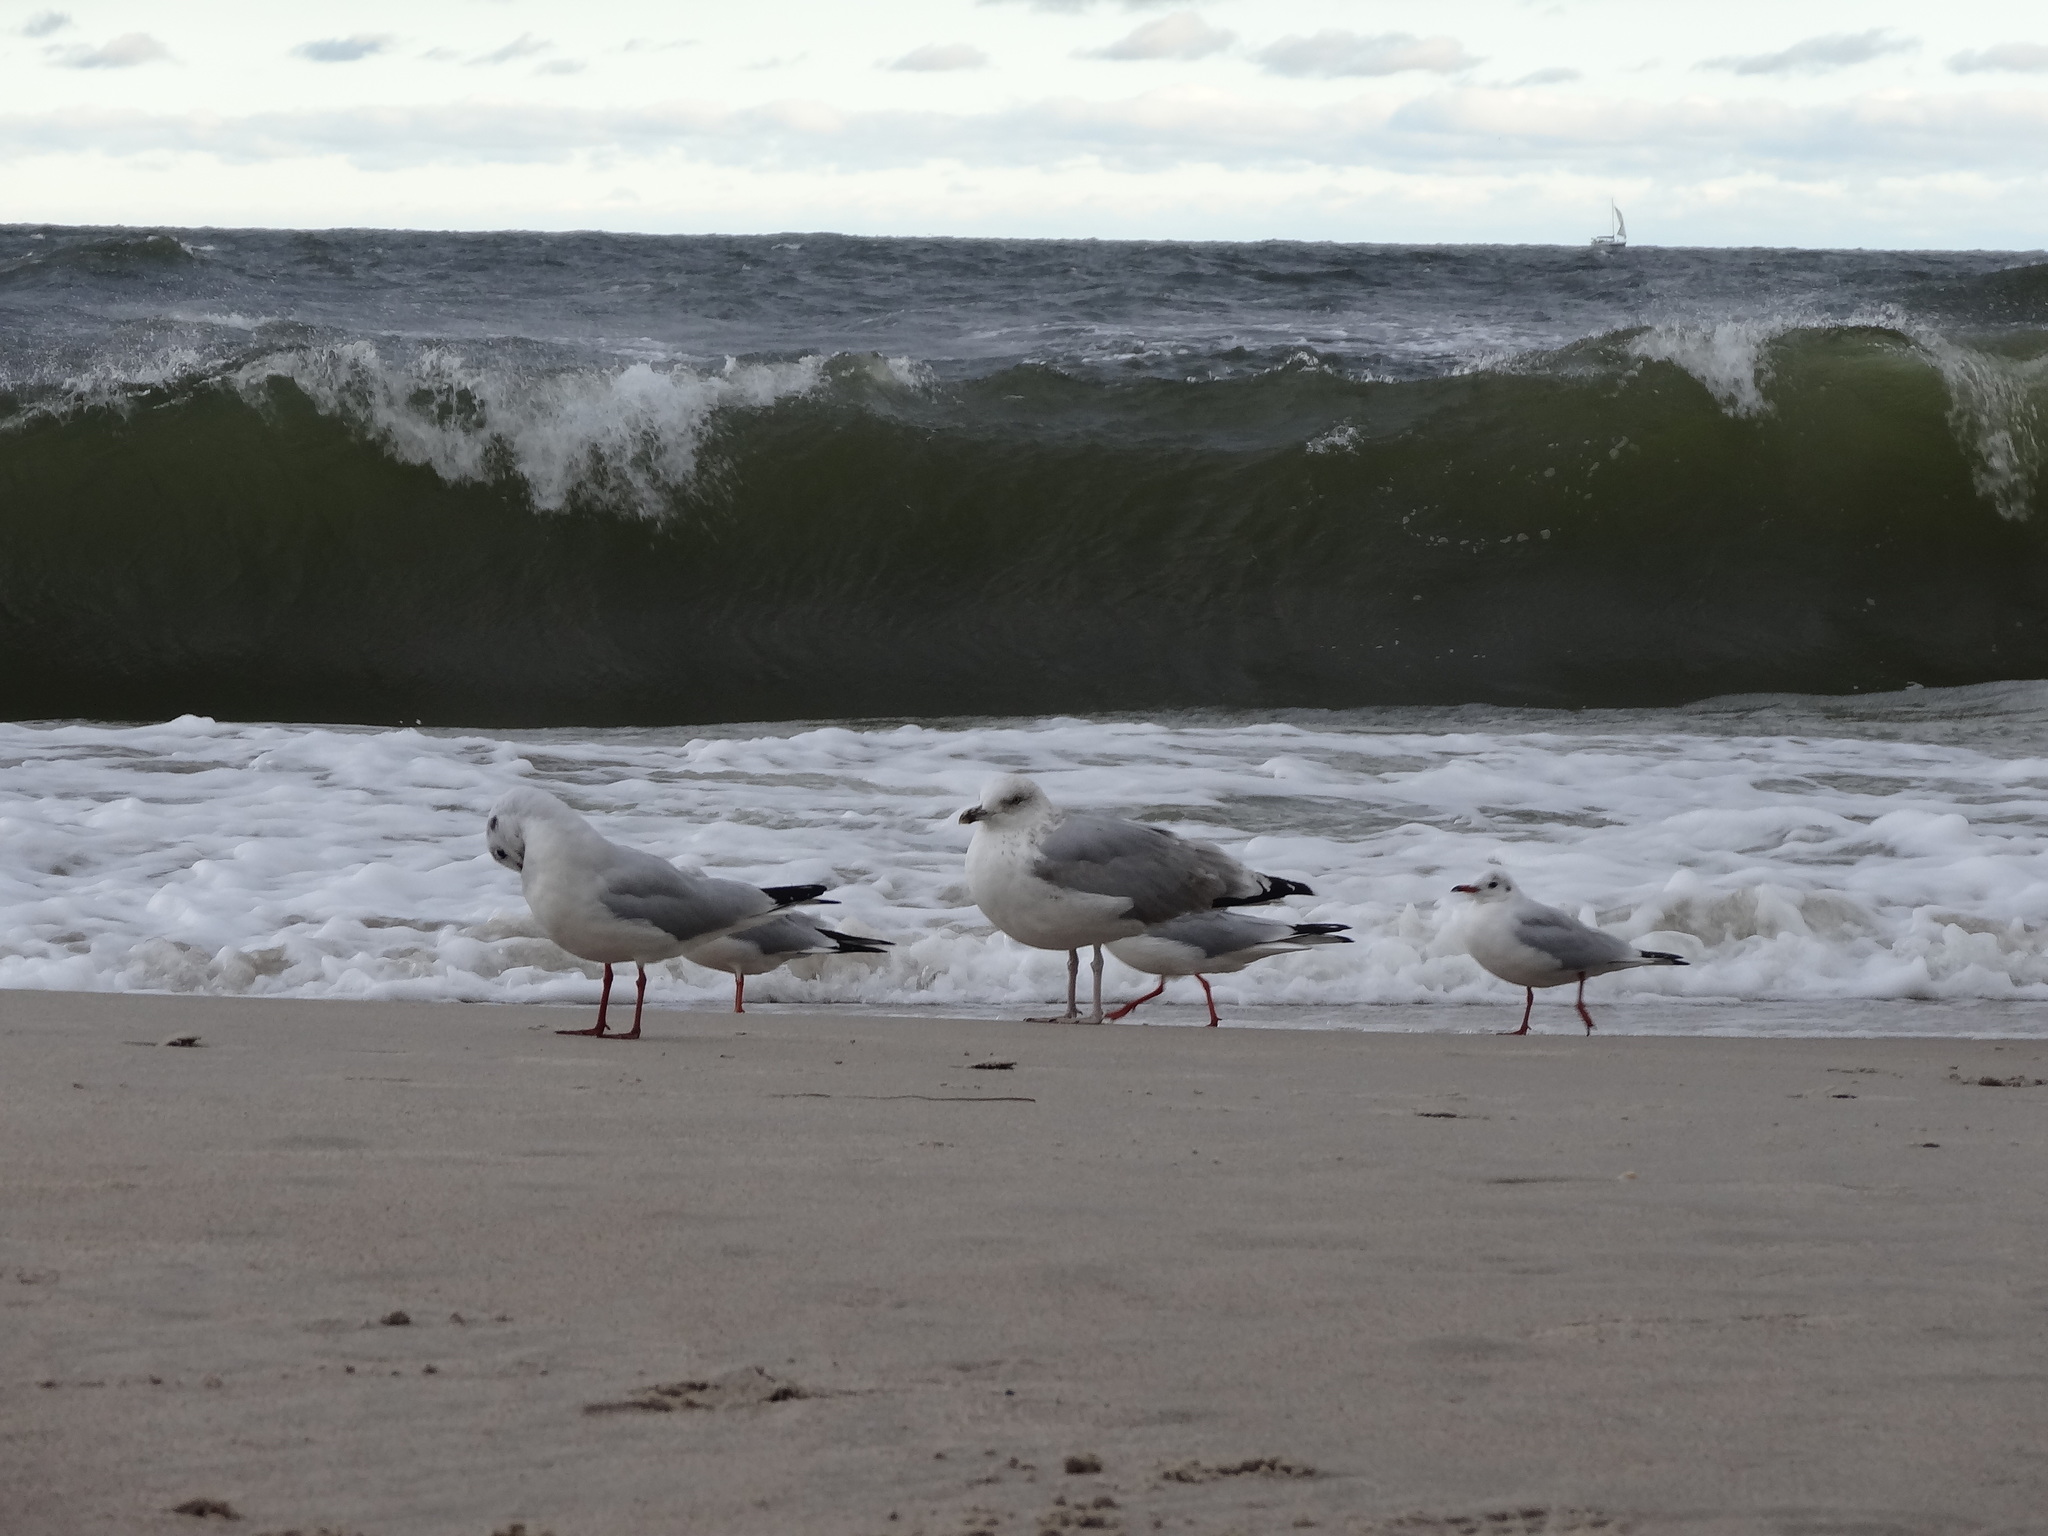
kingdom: Animalia
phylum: Chordata
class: Aves
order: Charadriiformes
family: Laridae
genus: Chroicocephalus
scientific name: Chroicocephalus ridibundus
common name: Black-headed gull
